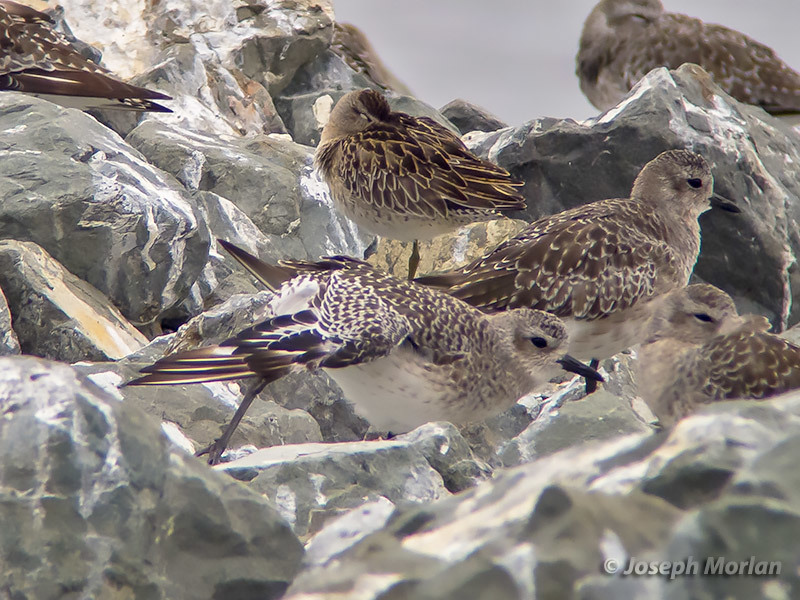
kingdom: Animalia
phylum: Chordata
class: Aves
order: Charadriiformes
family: Charadriidae
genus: Pluvialis
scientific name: Pluvialis squatarola
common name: Grey plover
